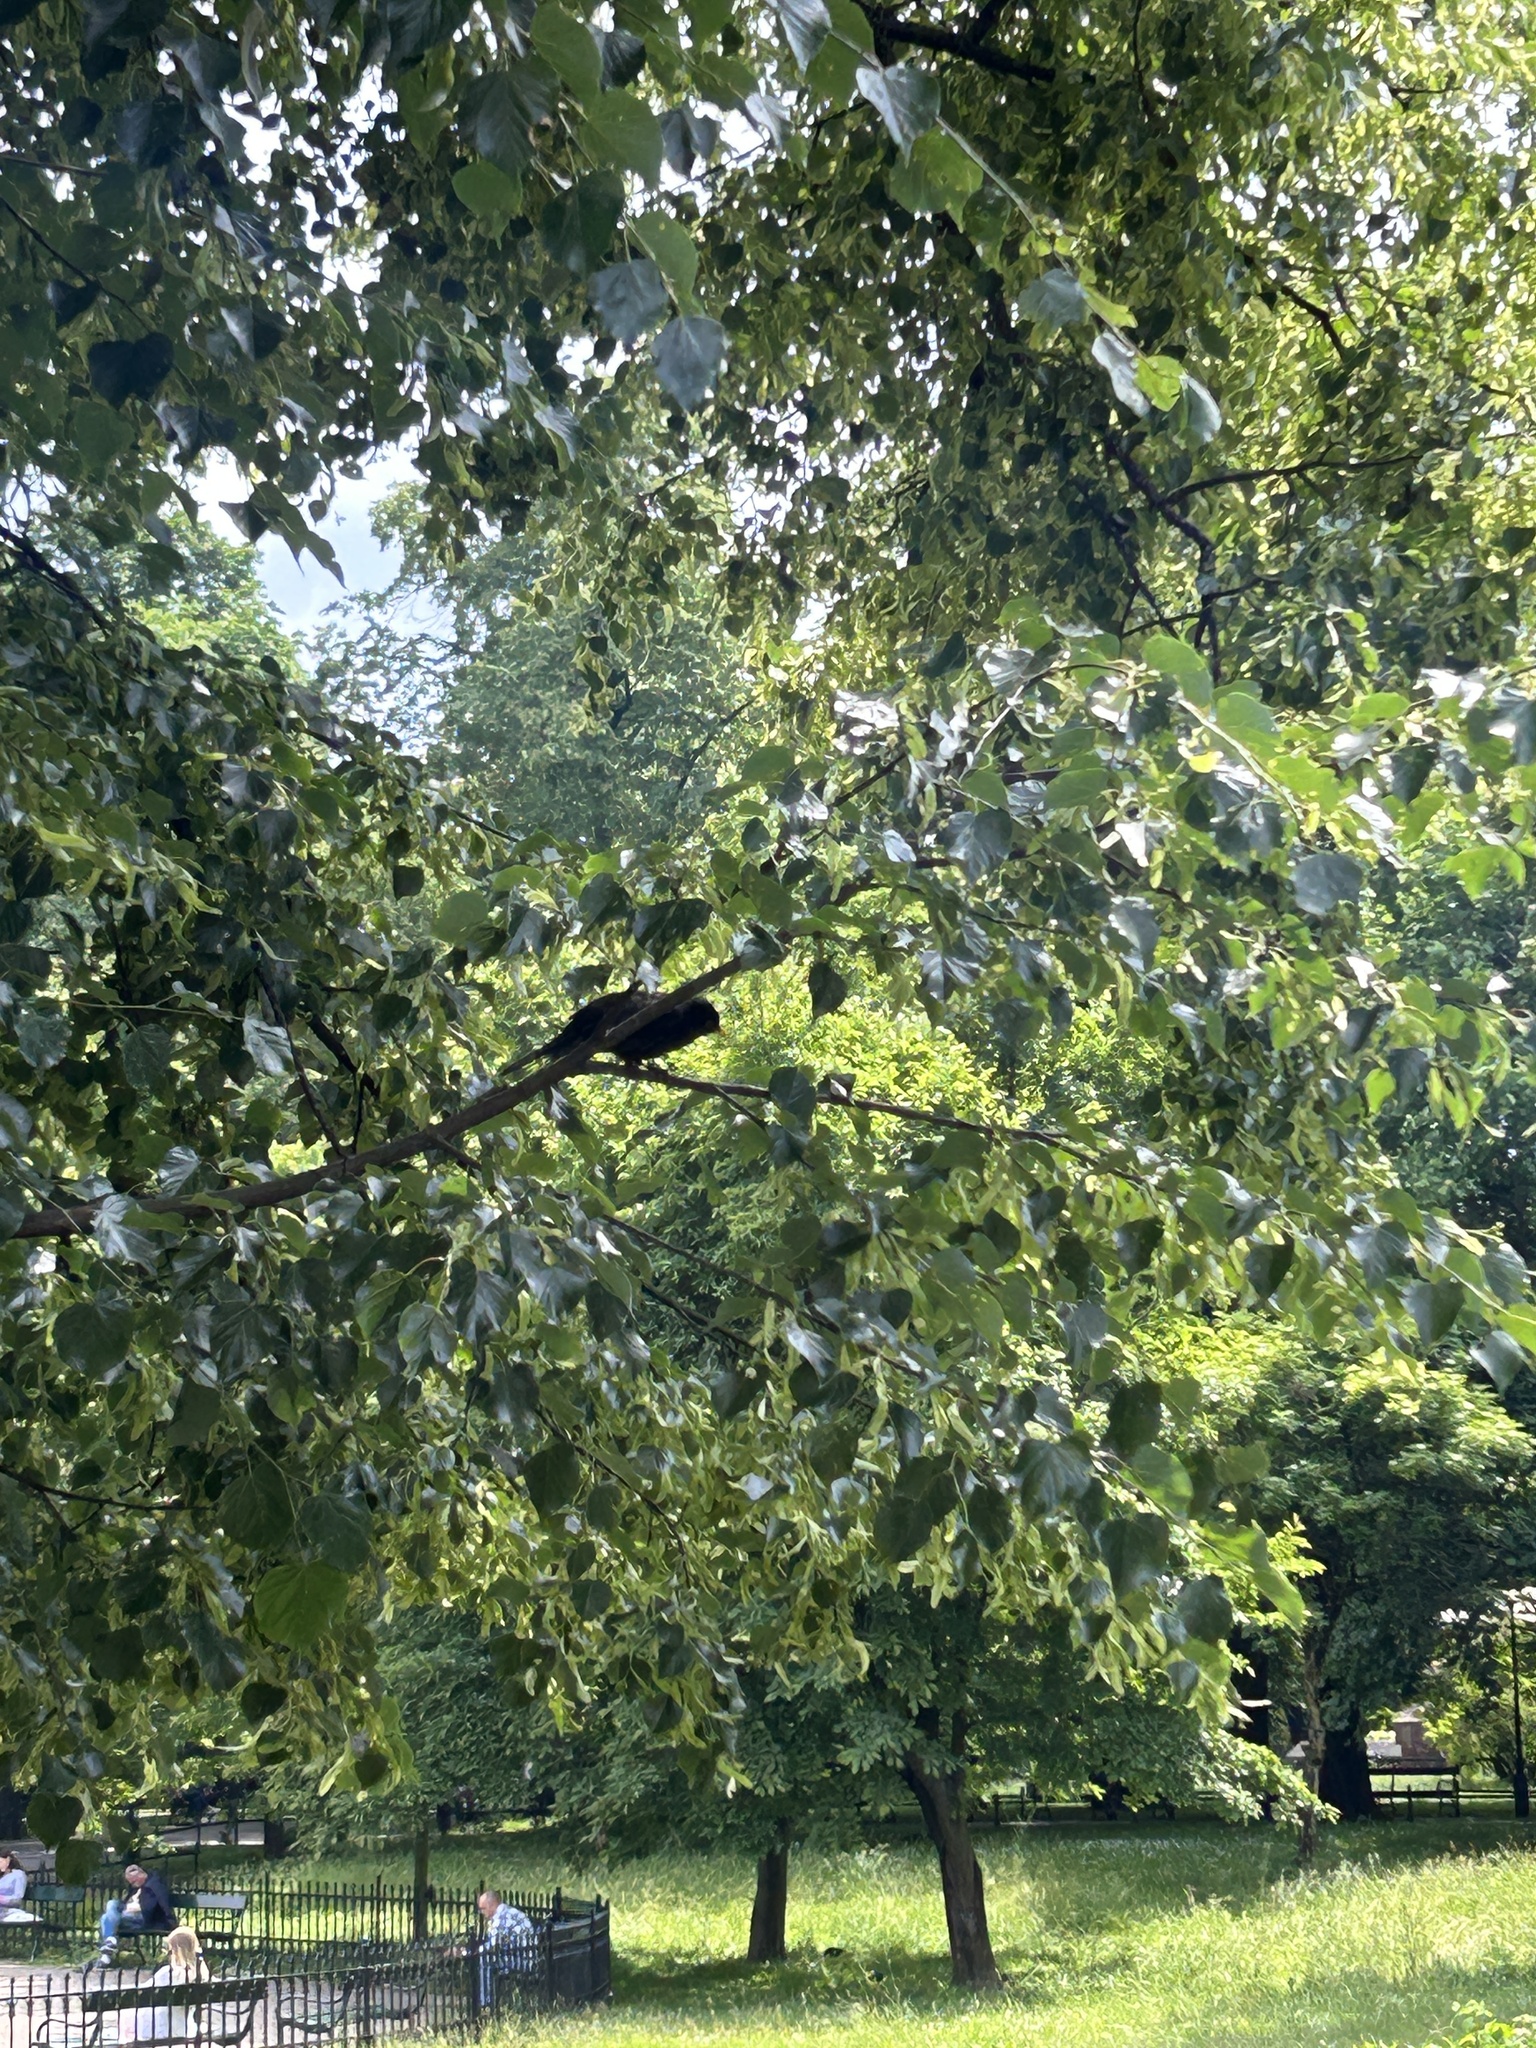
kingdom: Animalia
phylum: Chordata
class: Aves
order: Passeriformes
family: Turdidae
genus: Turdus
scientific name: Turdus merula
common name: Common blackbird
